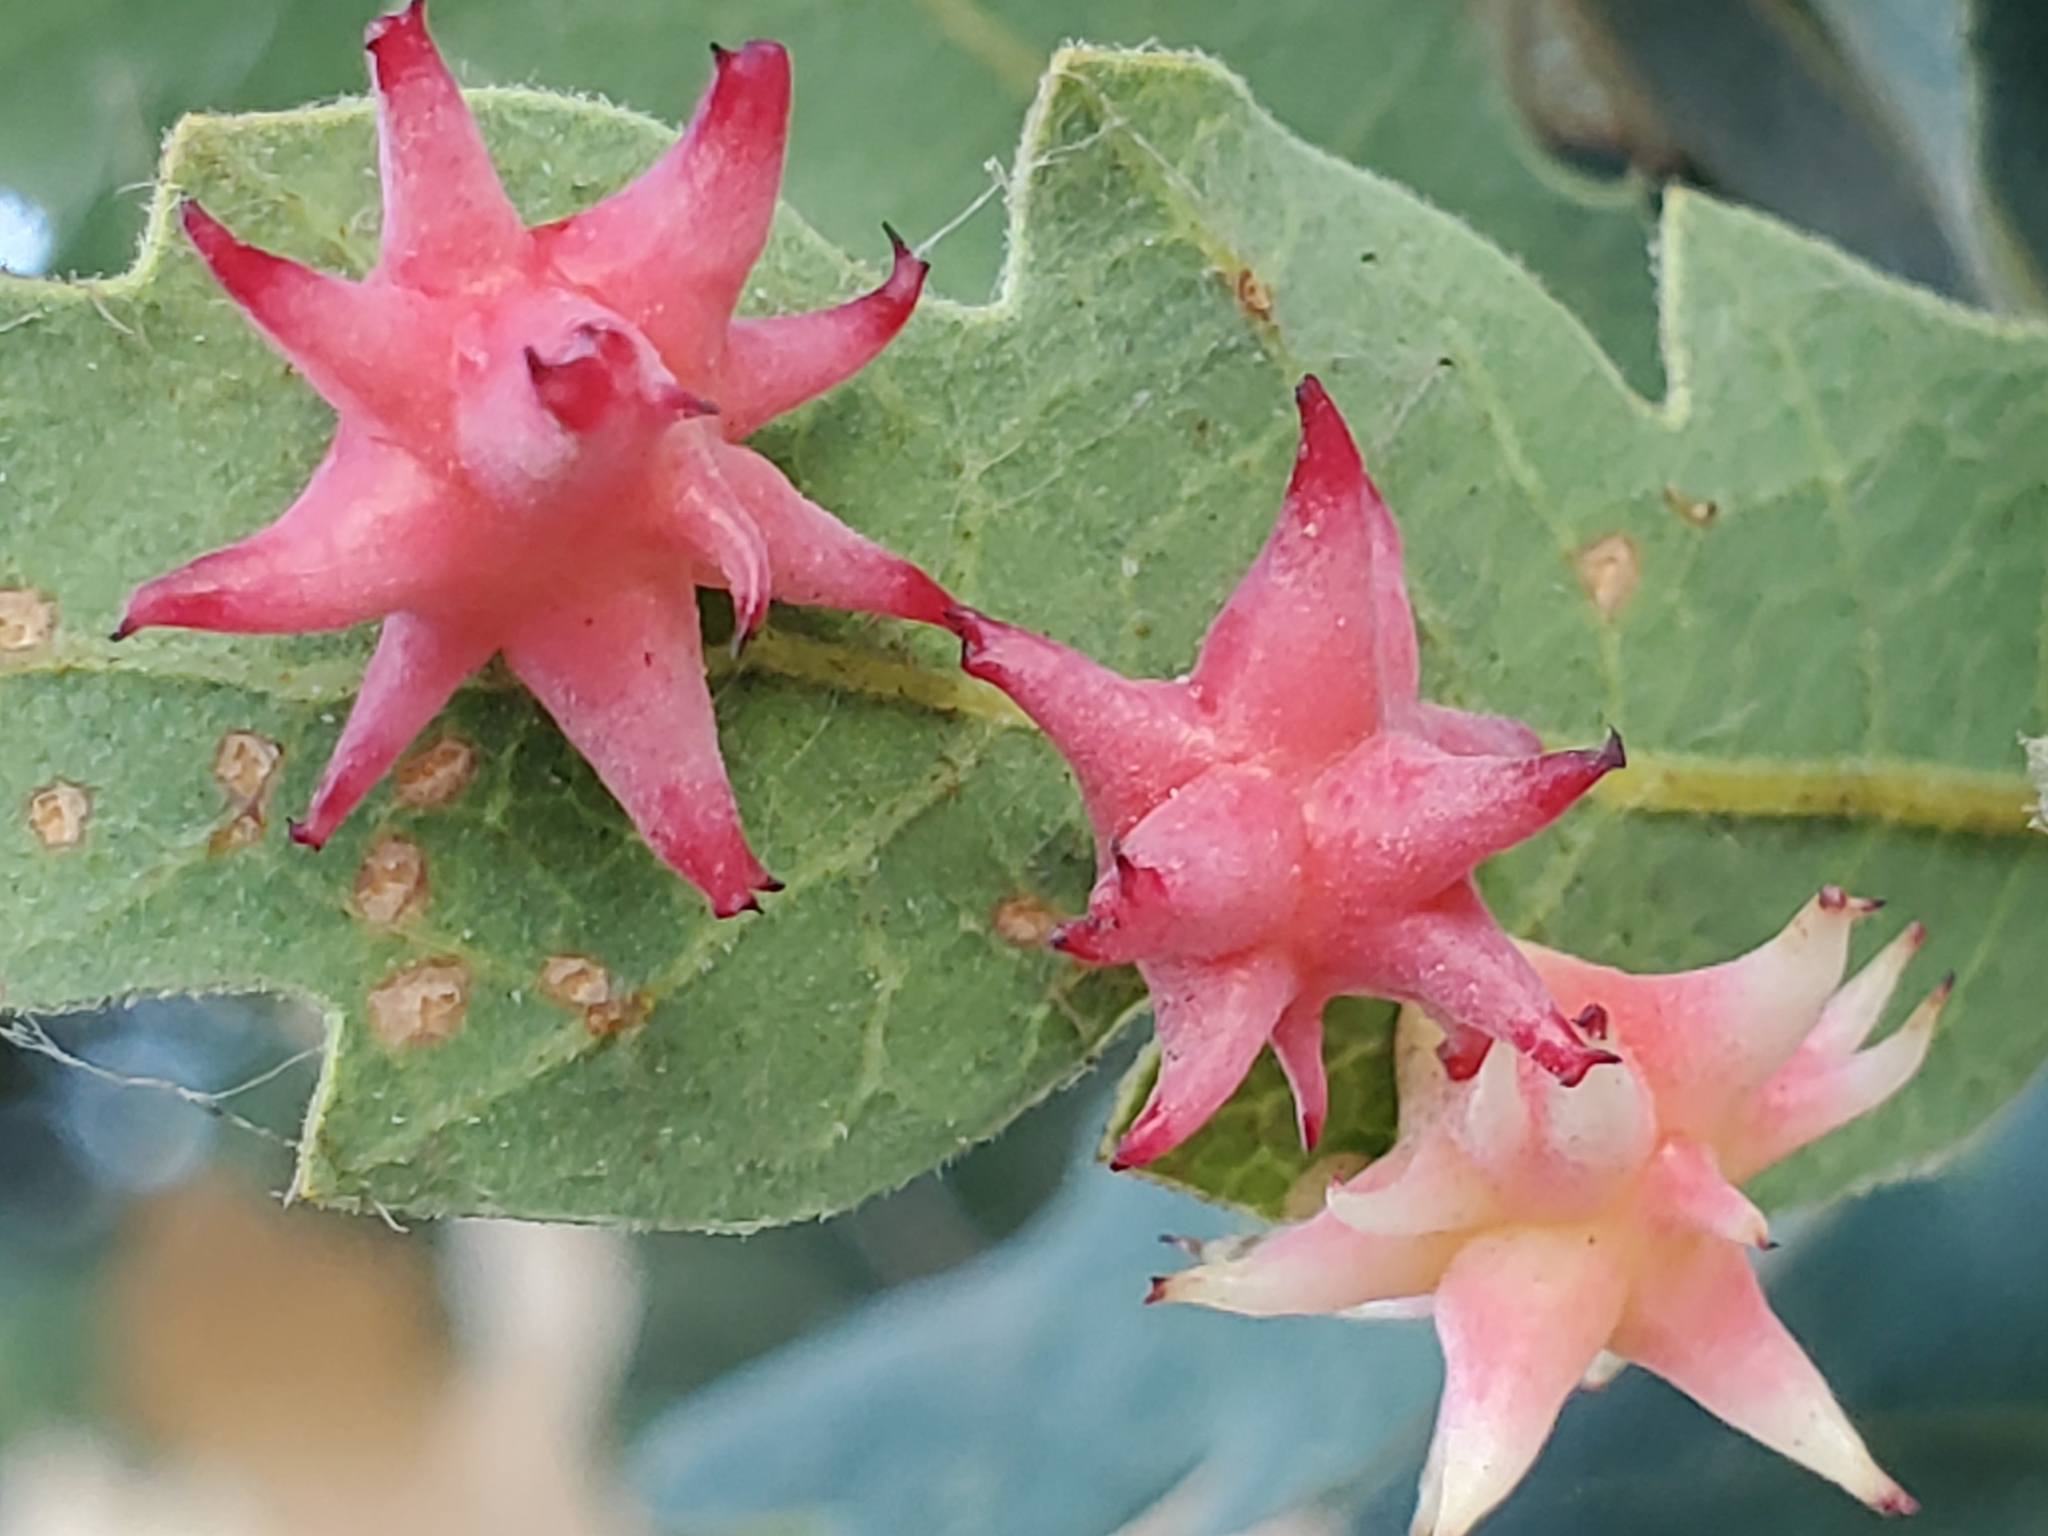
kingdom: Animalia
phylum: Arthropoda
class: Insecta
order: Hymenoptera
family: Cynipidae
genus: Cynips
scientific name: Cynips
